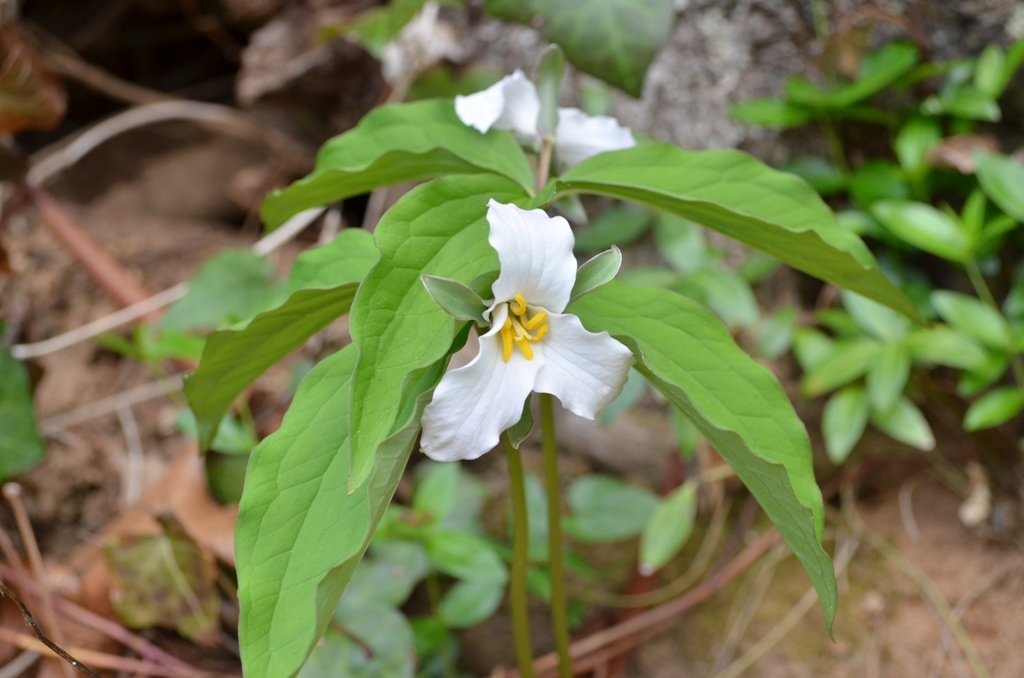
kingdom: Plantae
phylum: Tracheophyta
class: Liliopsida
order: Liliales
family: Melanthiaceae
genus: Trillium
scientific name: Trillium catesbaei
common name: Bashful trillium
